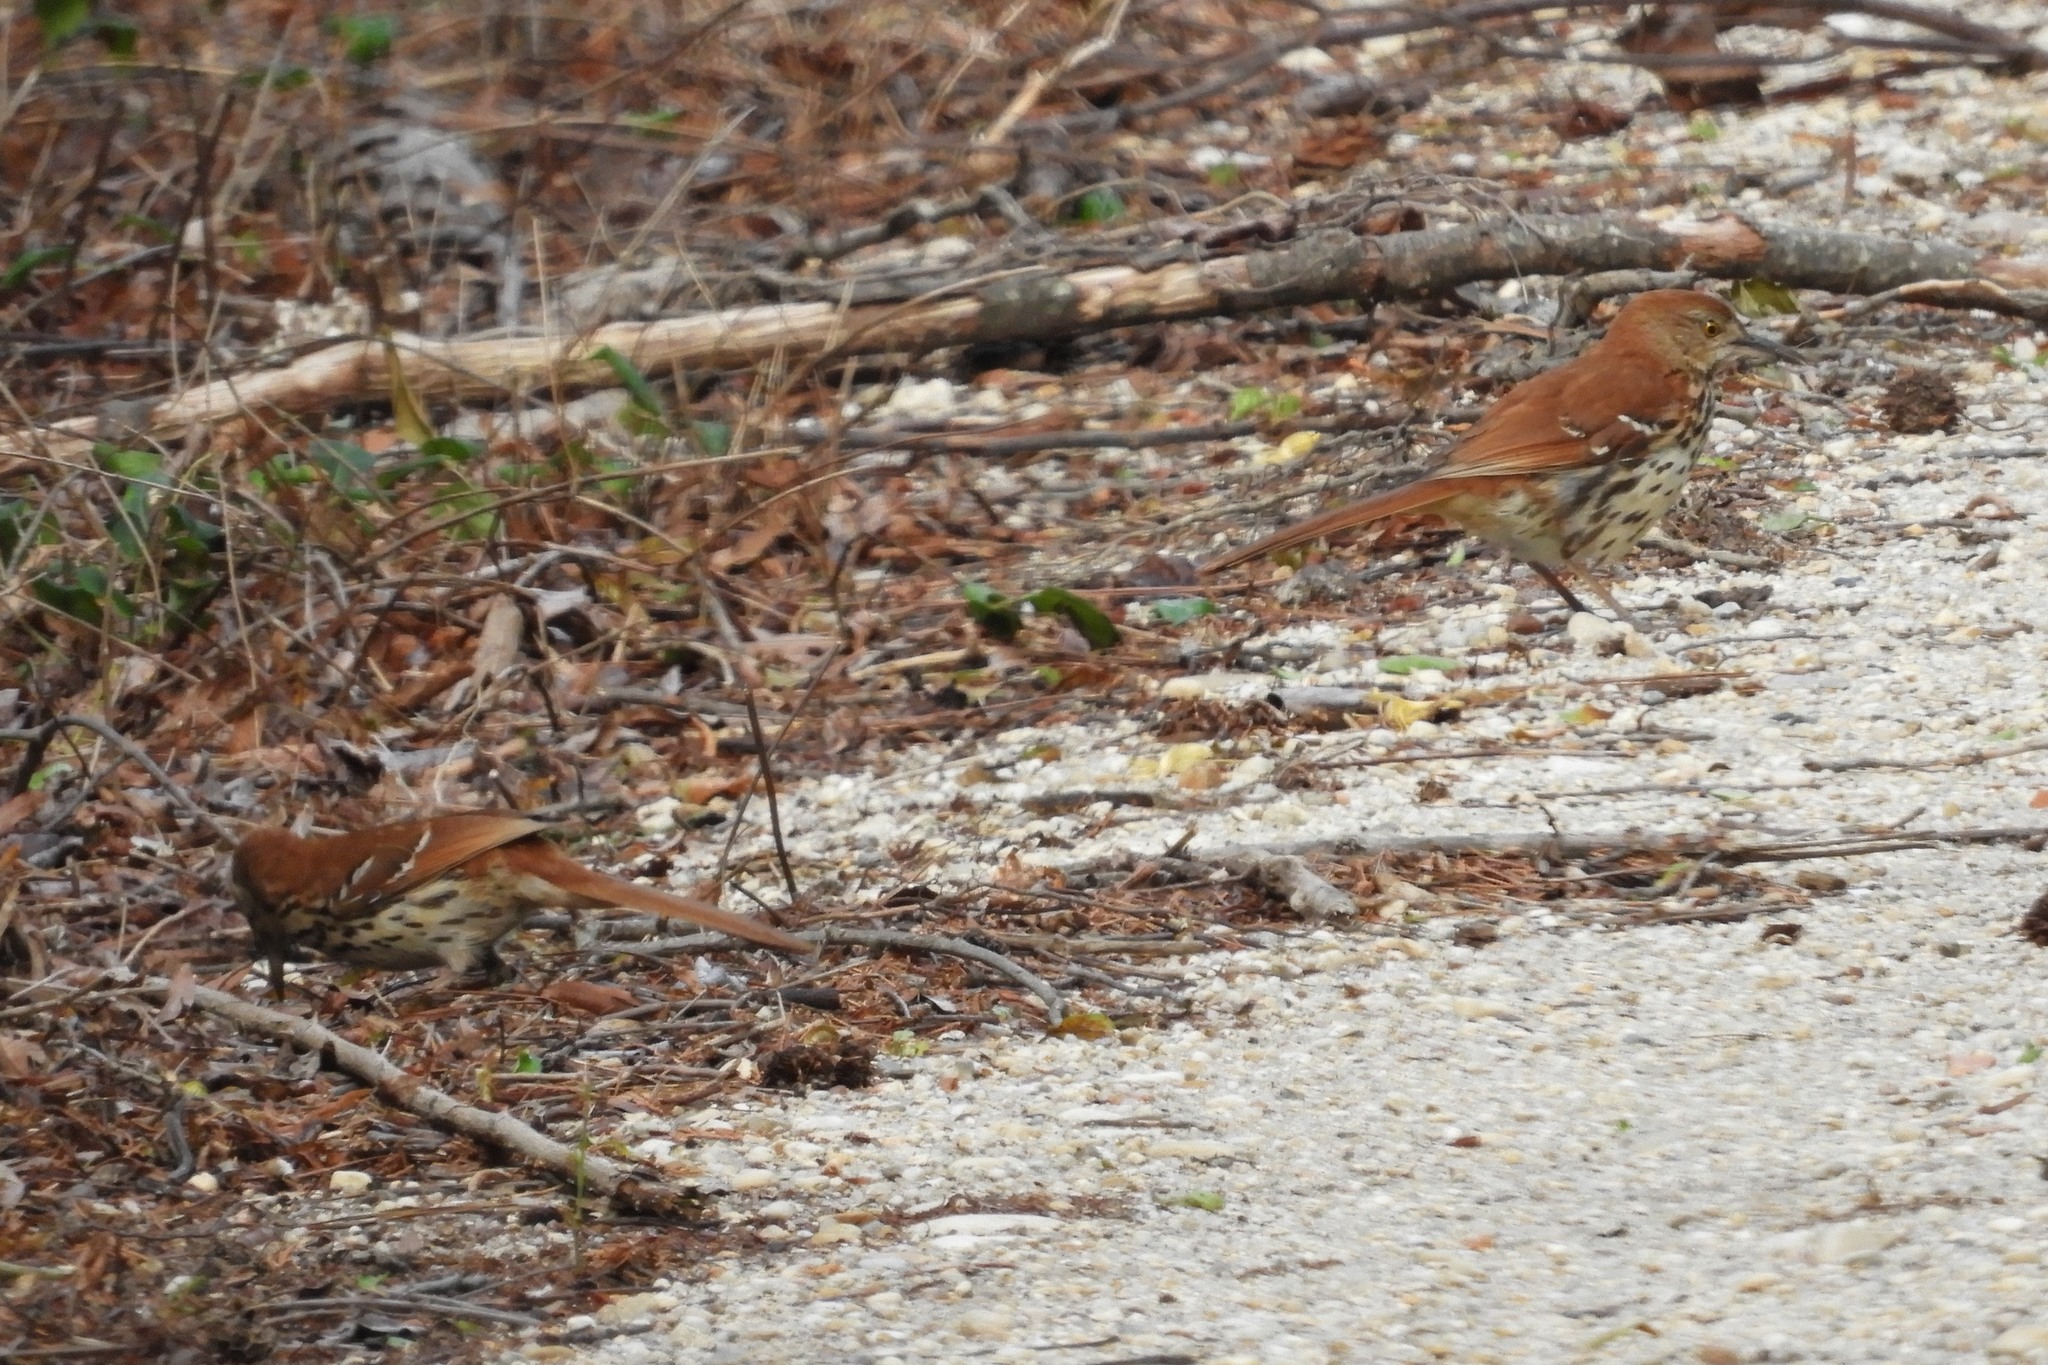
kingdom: Animalia
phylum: Chordata
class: Aves
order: Passeriformes
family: Mimidae
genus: Toxostoma
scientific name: Toxostoma rufum
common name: Brown thrasher
